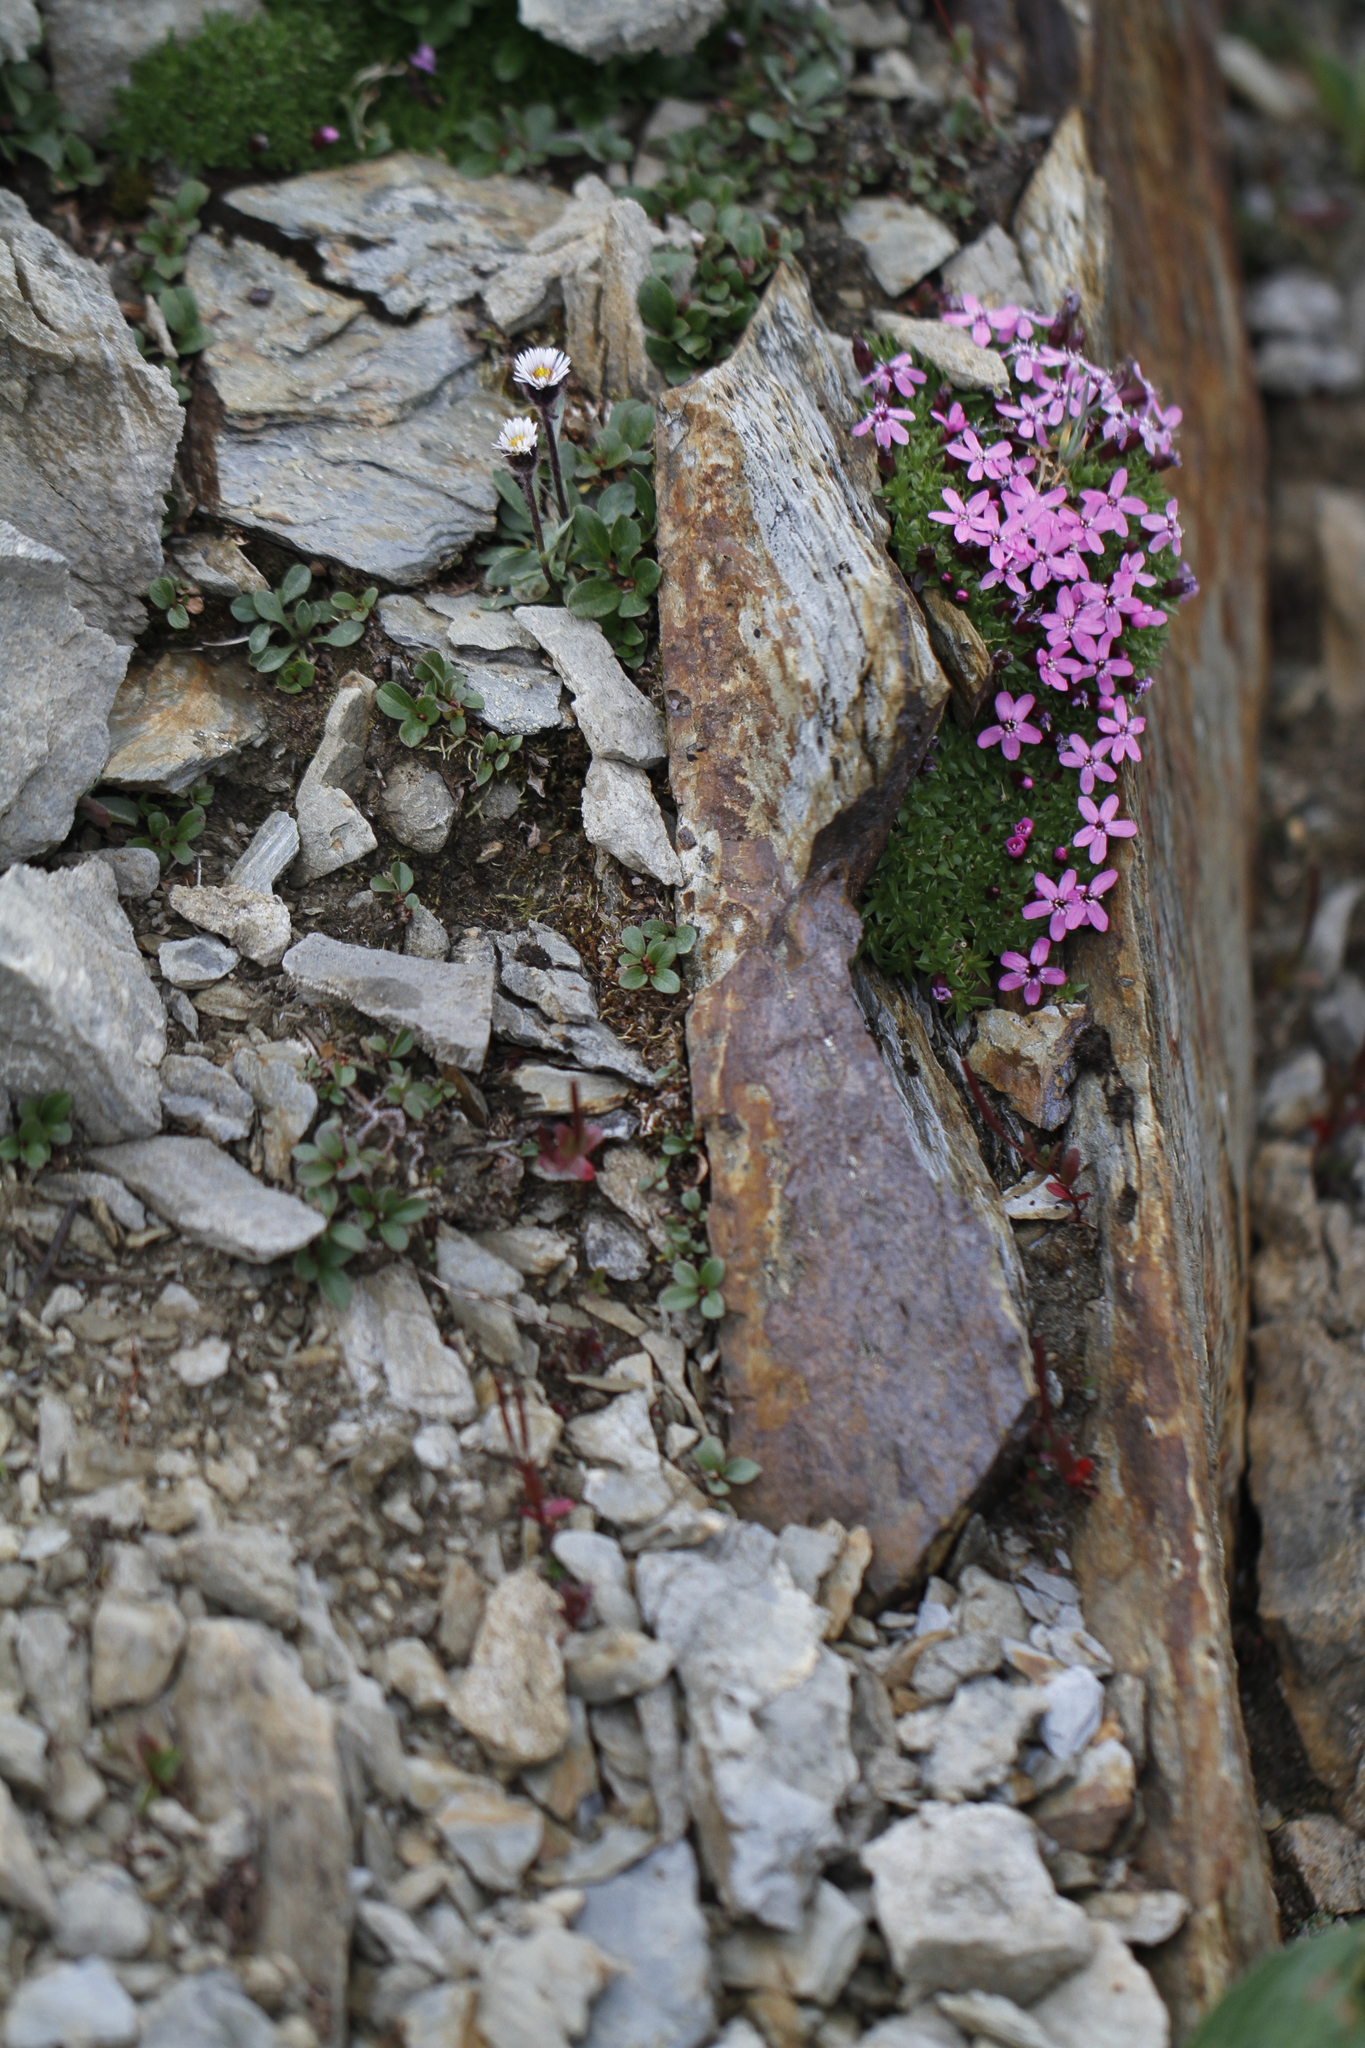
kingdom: Plantae
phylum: Tracheophyta
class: Magnoliopsida
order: Caryophyllales
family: Caryophyllaceae
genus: Silene
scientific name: Silene acaulis
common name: Moss campion
